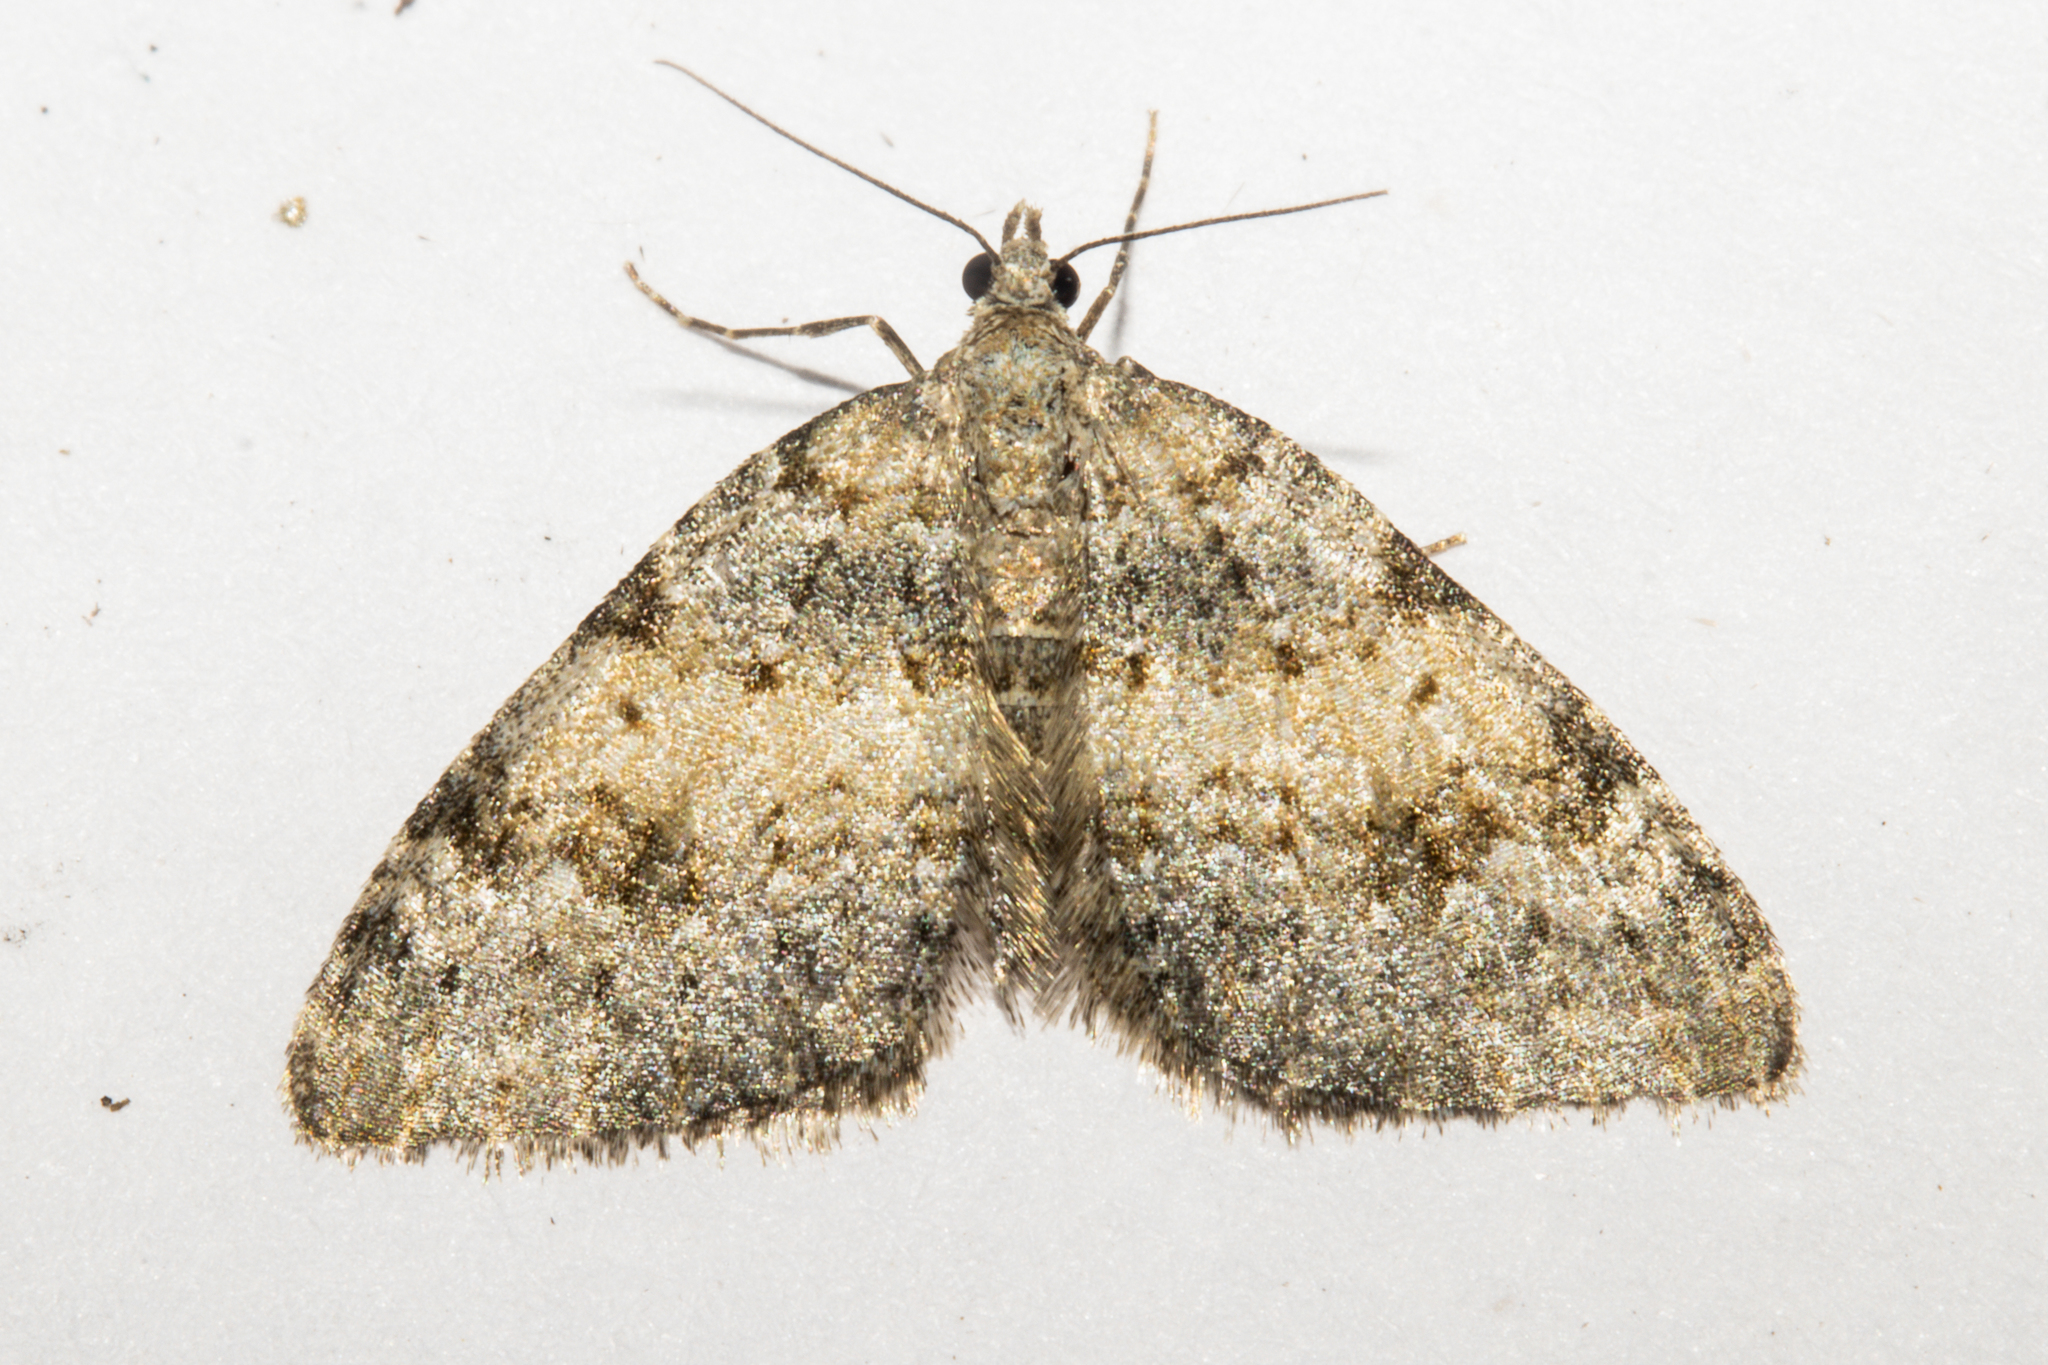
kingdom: Animalia
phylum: Arthropoda
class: Insecta
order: Lepidoptera
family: Geometridae
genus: Helastia
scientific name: Helastia christinae
